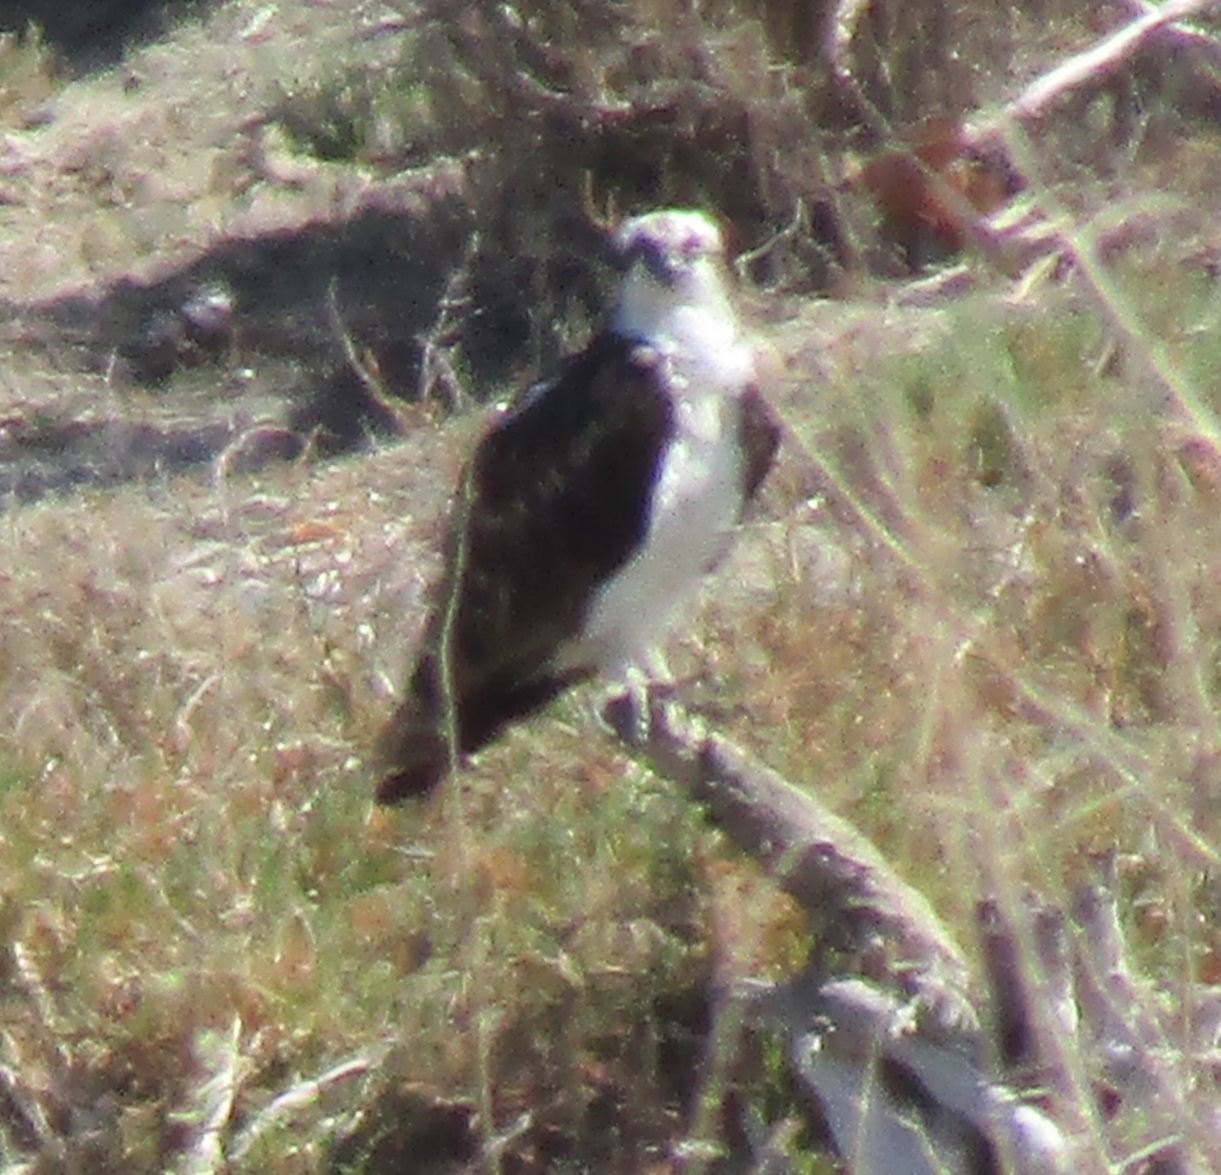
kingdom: Animalia
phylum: Chordata
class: Aves
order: Accipitriformes
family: Pandionidae
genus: Pandion
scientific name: Pandion haliaetus
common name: Osprey
